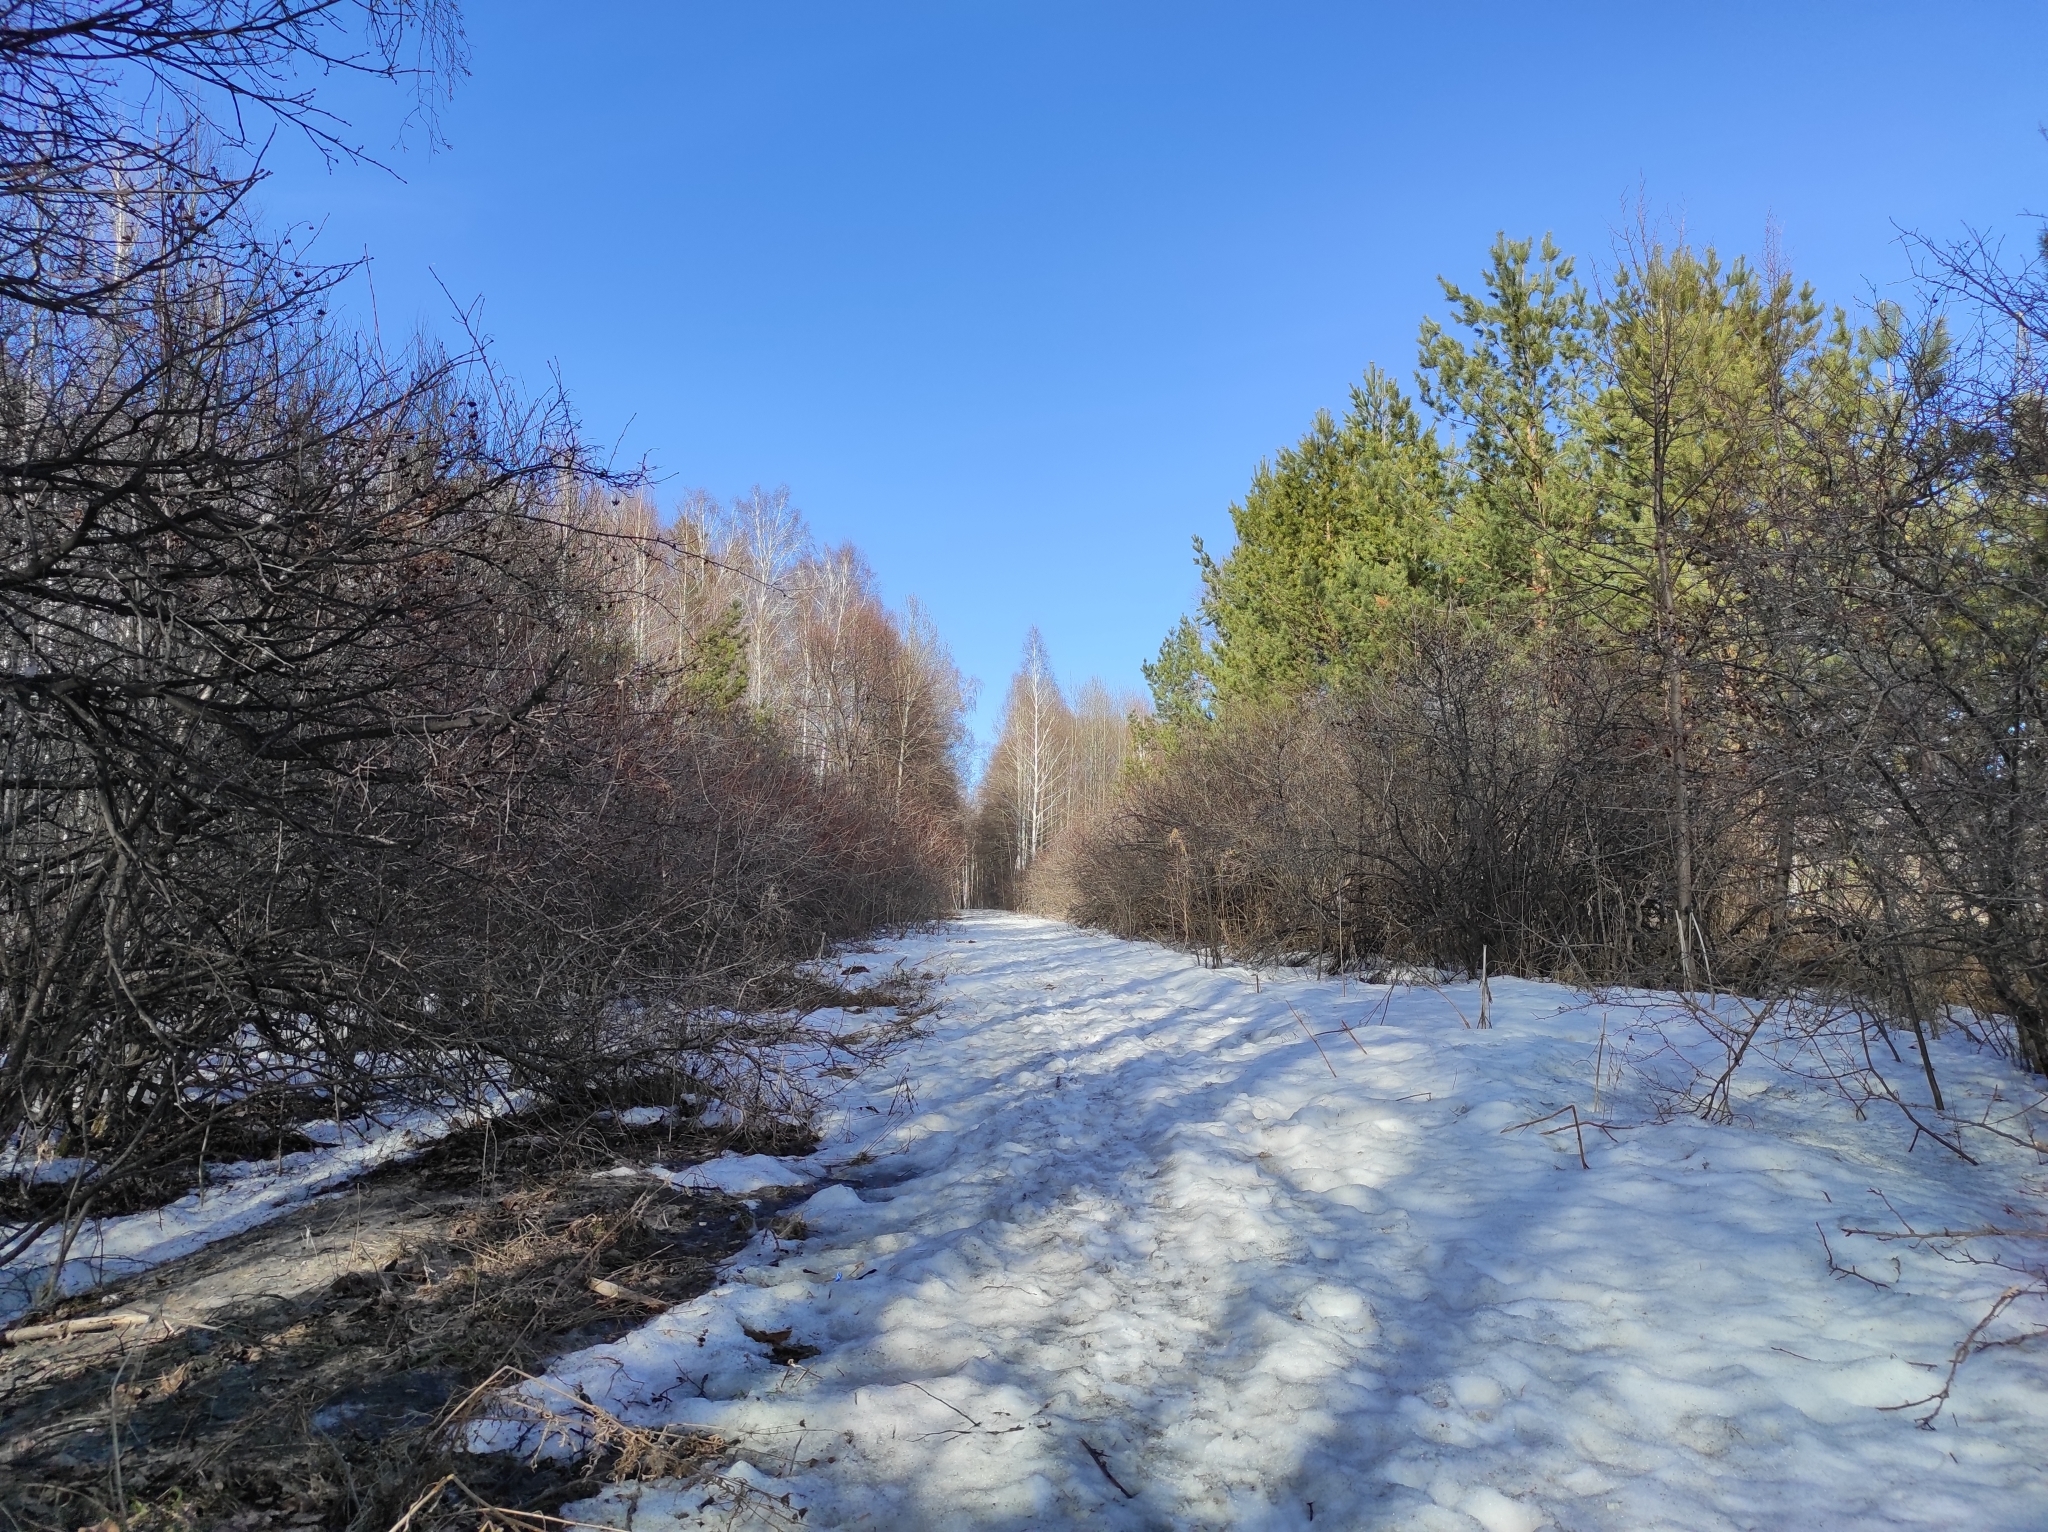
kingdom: Plantae
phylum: Tracheophyta
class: Polypodiopsida
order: Equisetales
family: Equisetaceae
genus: Equisetum
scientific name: Equisetum hyemale
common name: Rough horsetail
